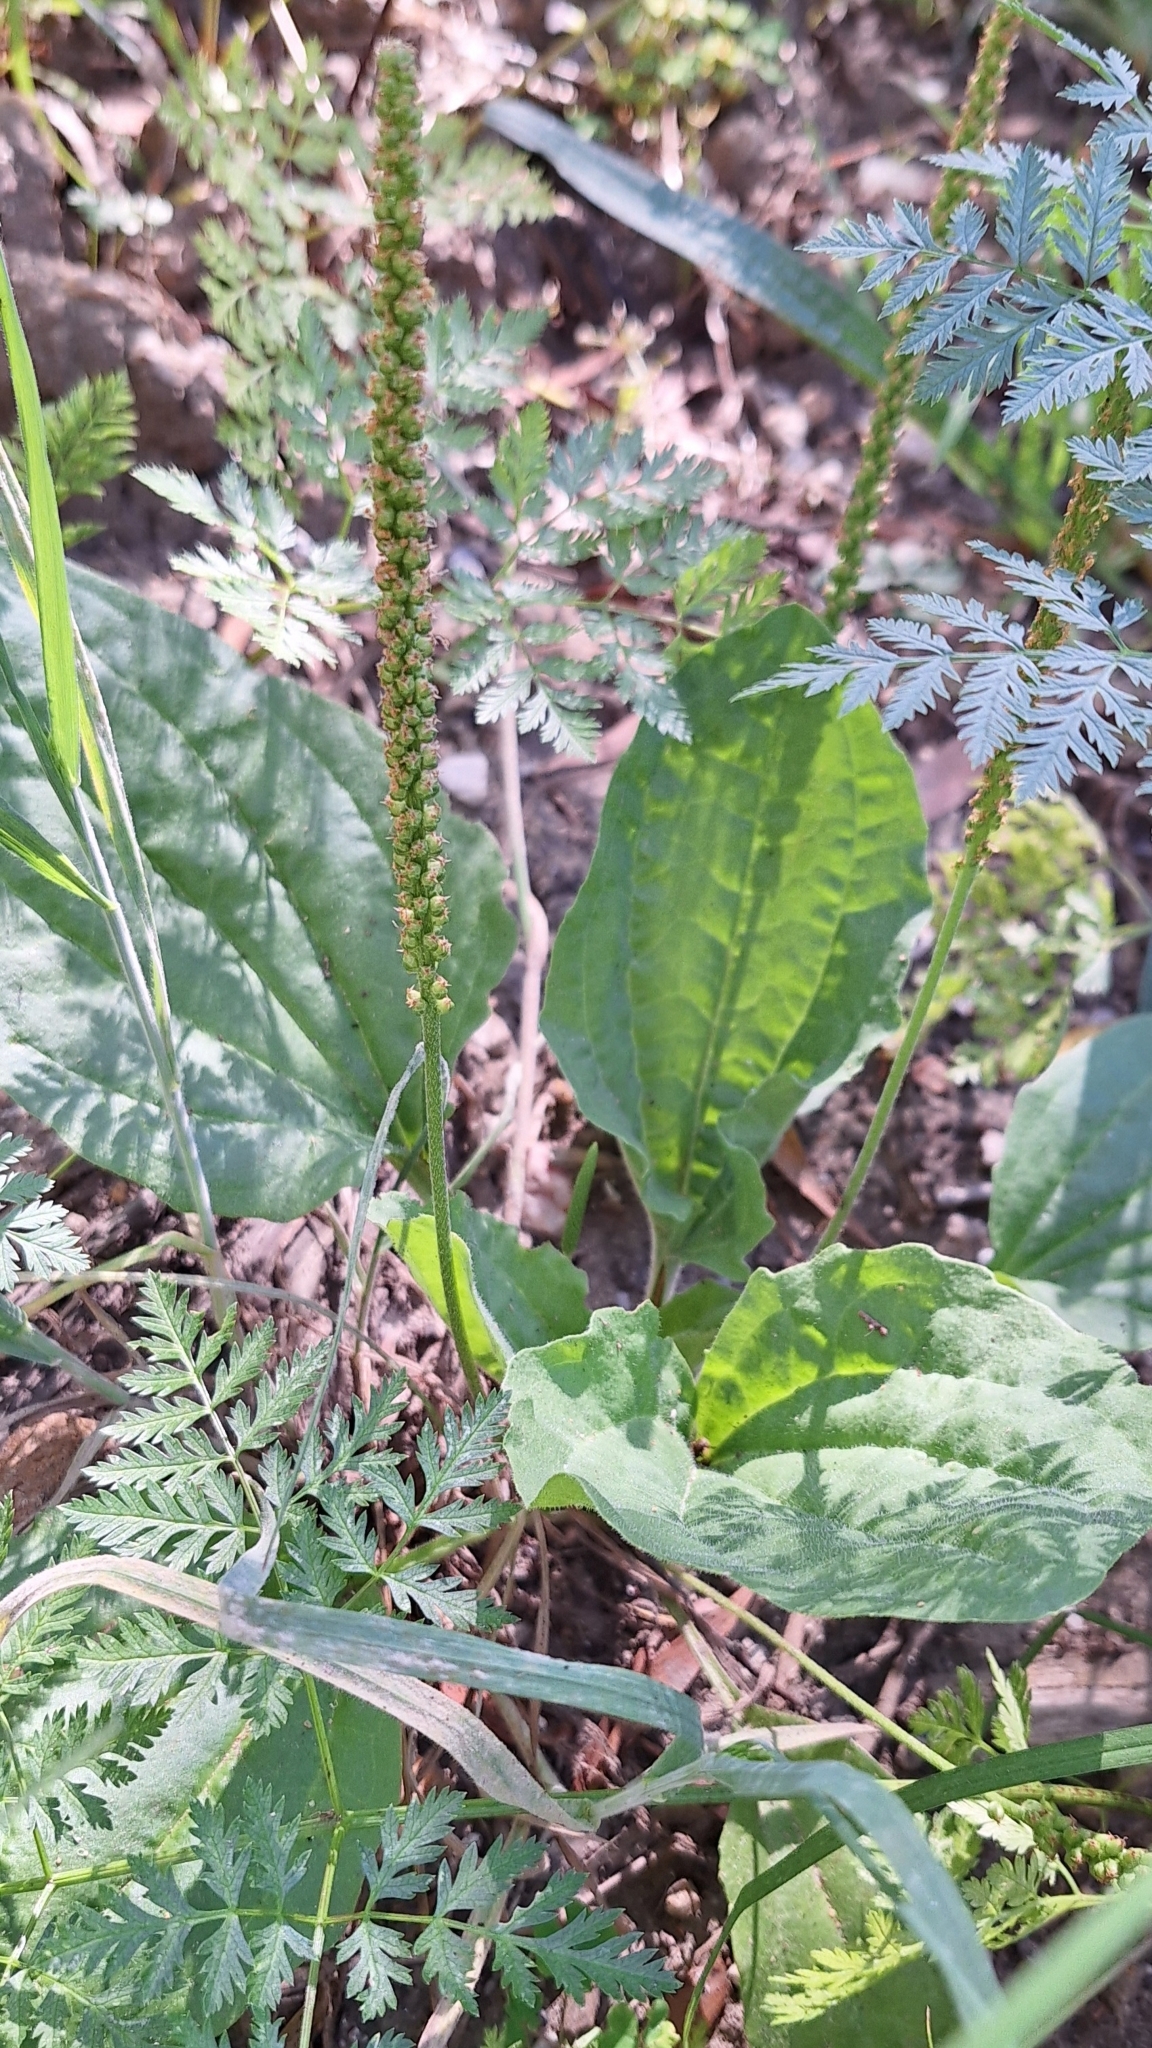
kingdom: Plantae
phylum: Tracheophyta
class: Magnoliopsida
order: Lamiales
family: Plantaginaceae
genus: Plantago
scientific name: Plantago major
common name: Common plantain
